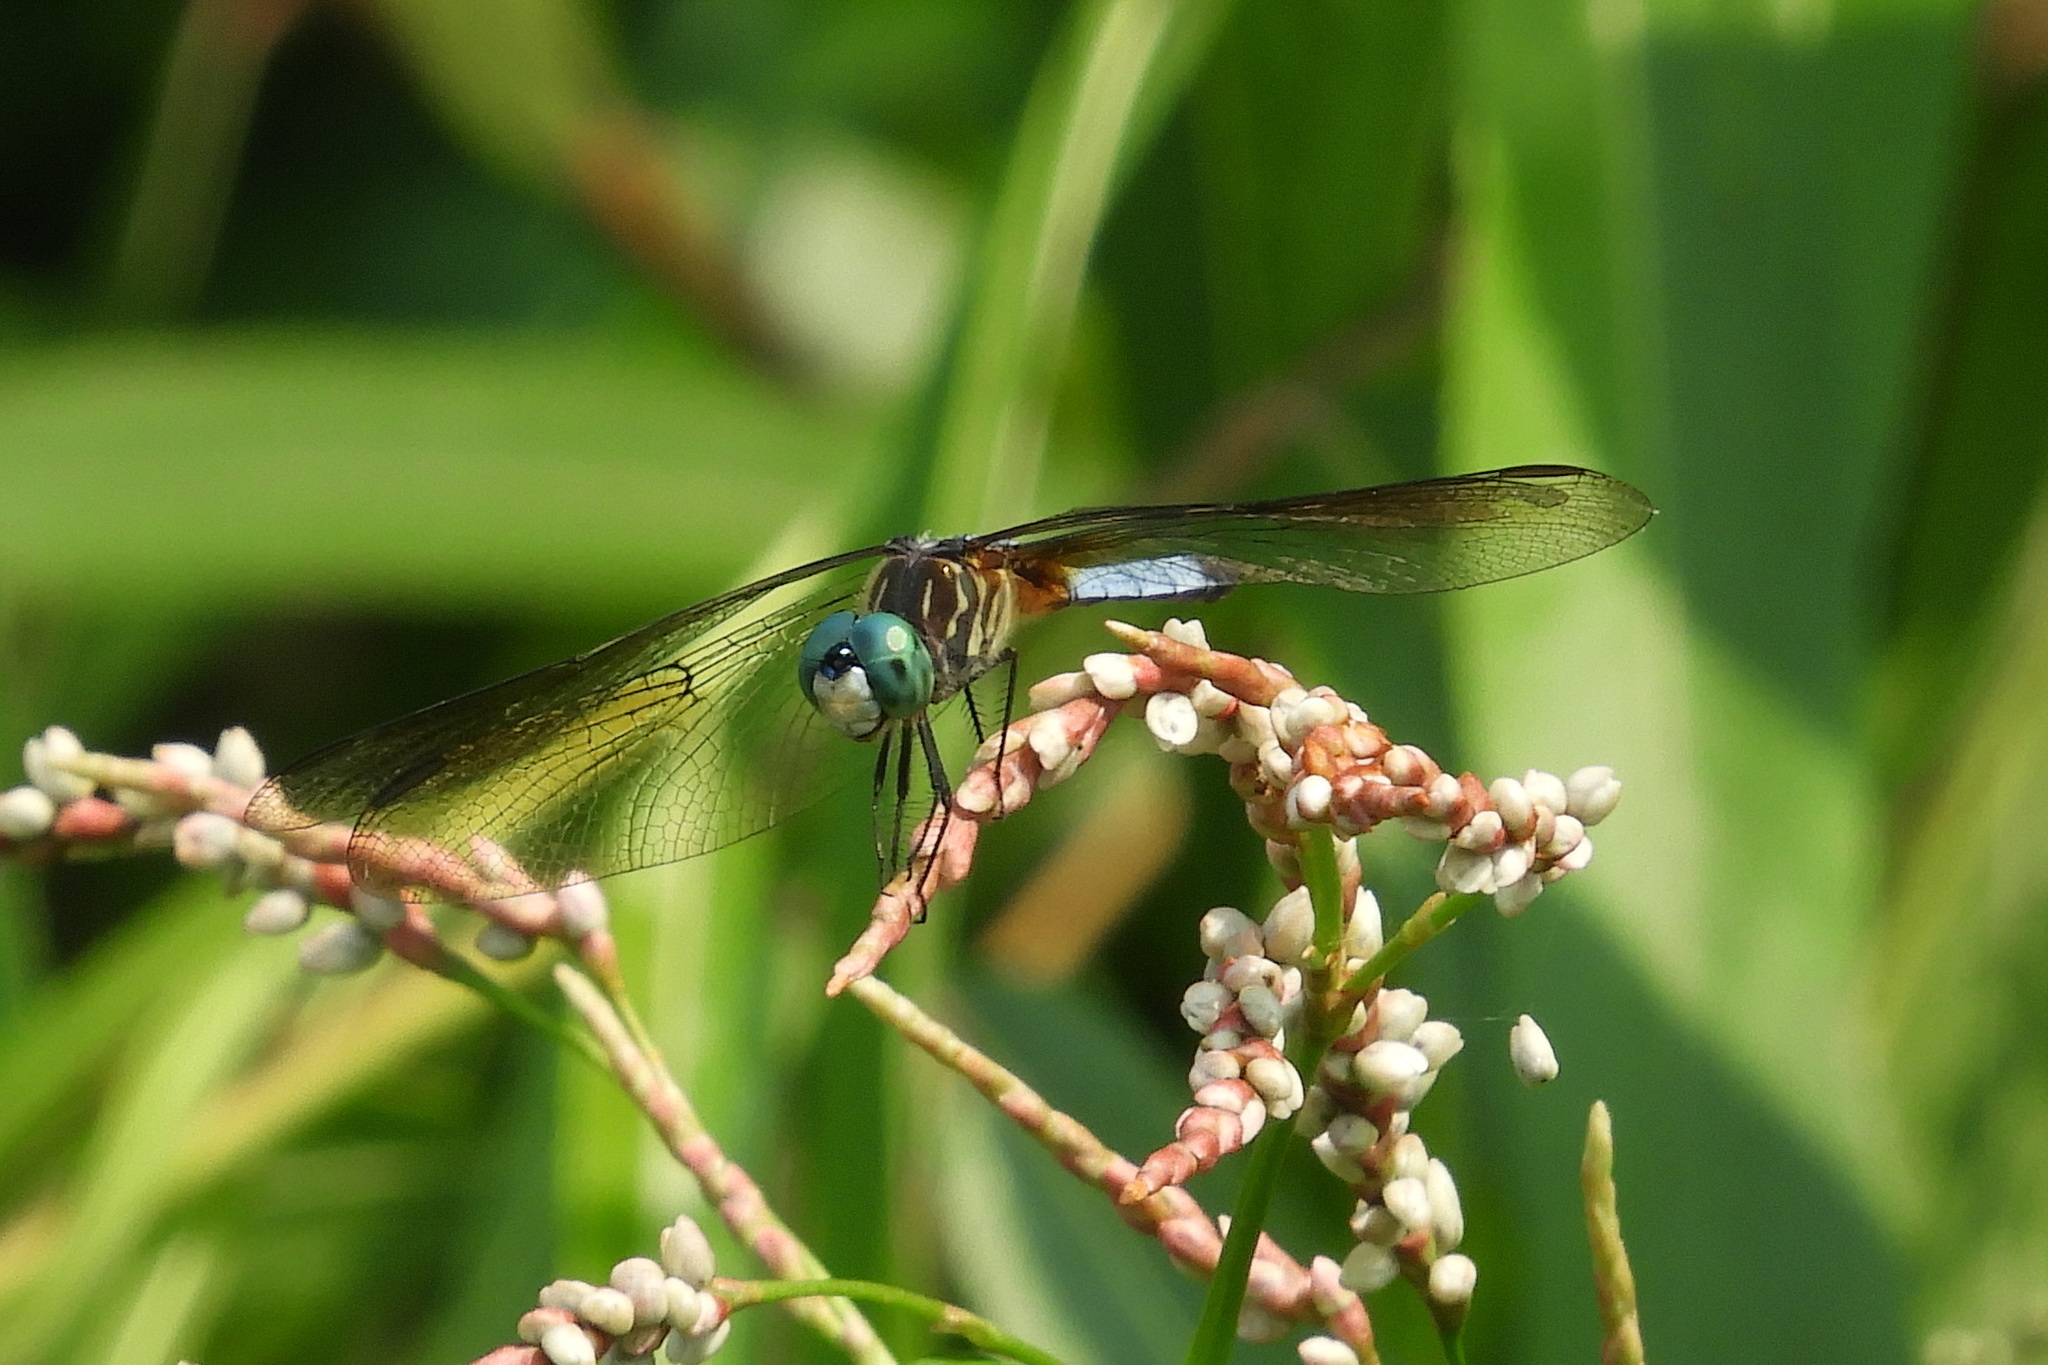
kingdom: Animalia
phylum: Arthropoda
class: Insecta
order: Odonata
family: Libellulidae
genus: Pachydiplax
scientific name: Pachydiplax longipennis
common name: Blue dasher
